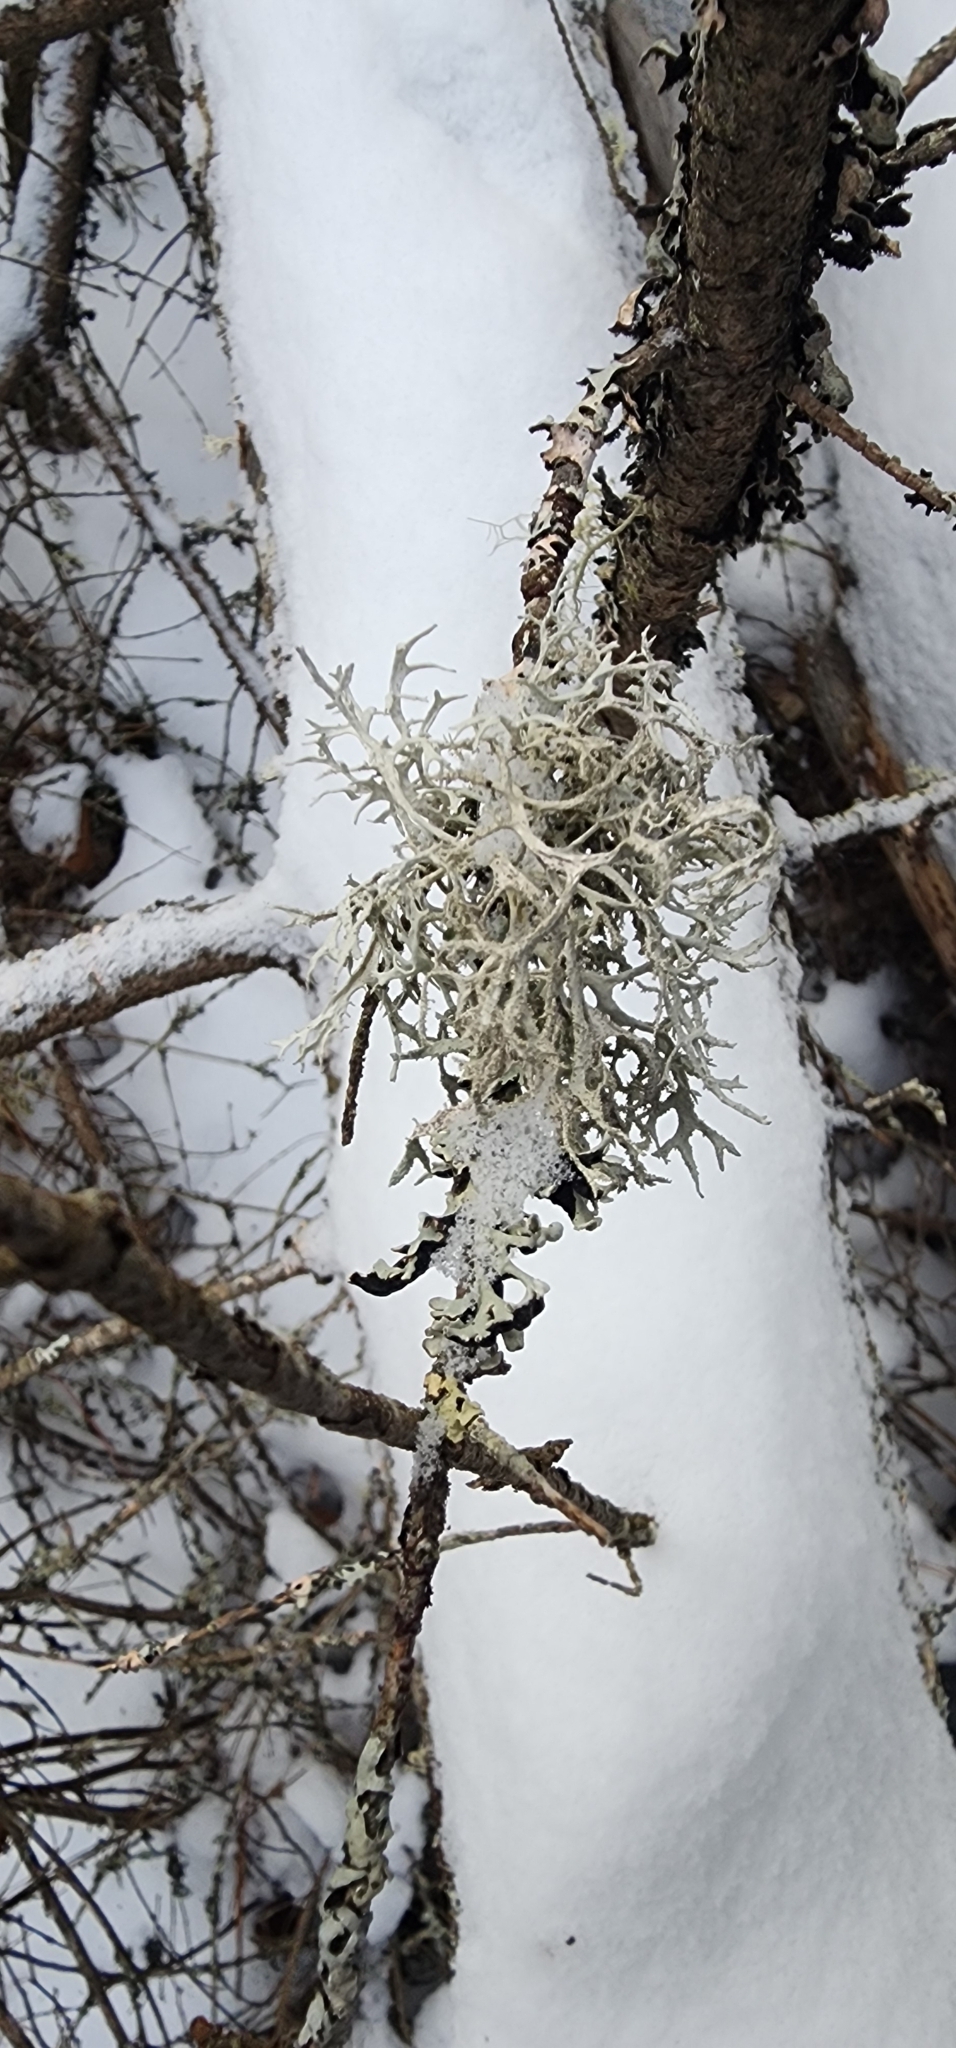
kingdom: Fungi
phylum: Ascomycota
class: Lecanoromycetes
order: Lecanorales
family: Parmeliaceae
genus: Pseudevernia
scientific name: Pseudevernia consocians
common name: Common antler lichen
